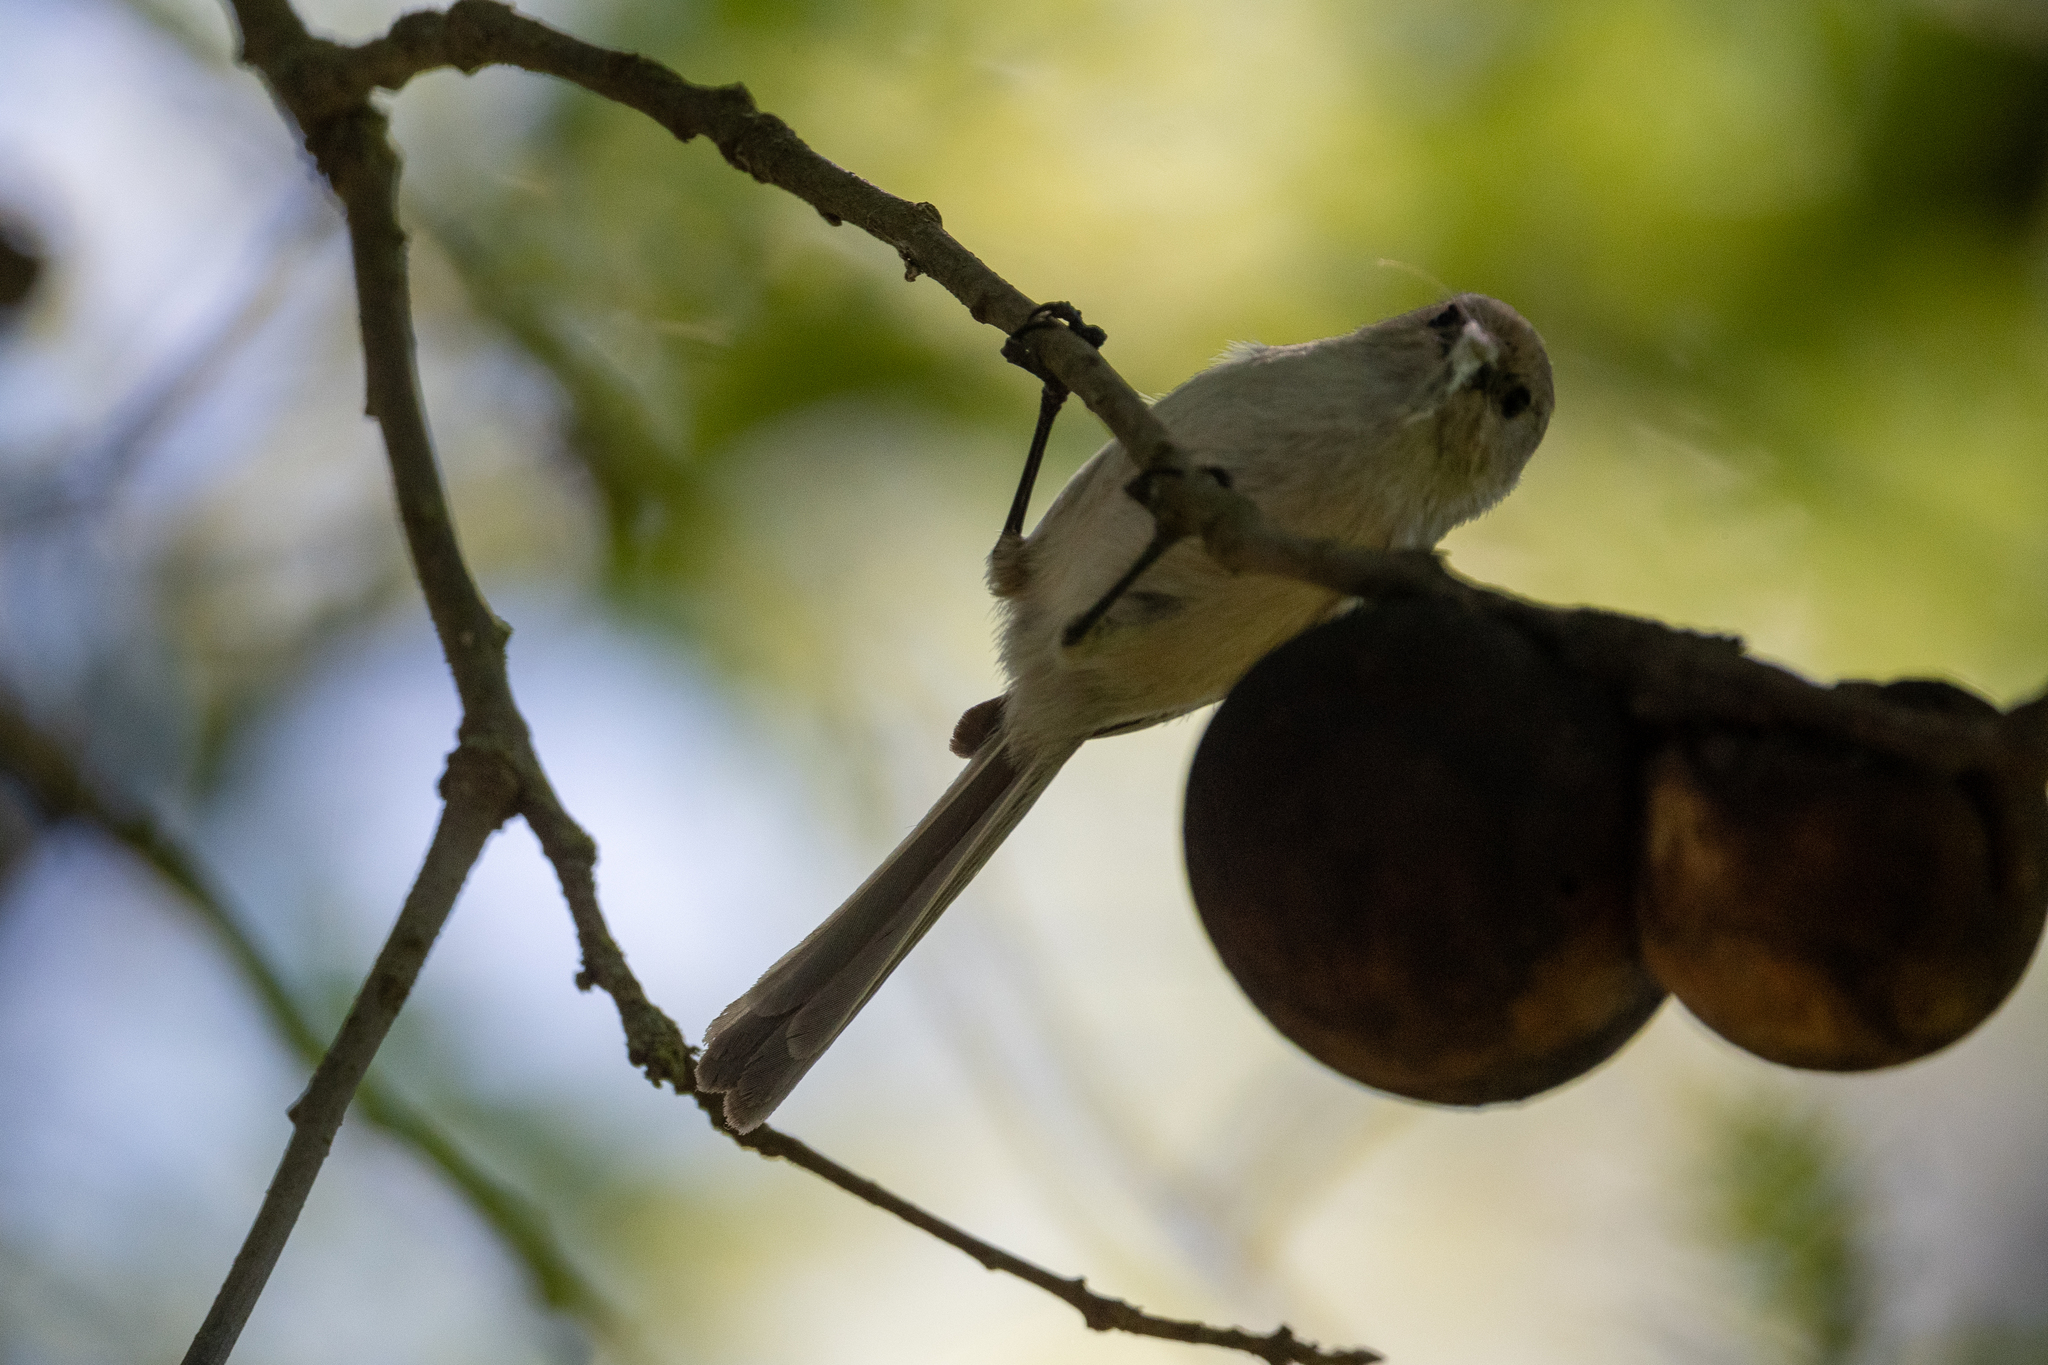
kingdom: Animalia
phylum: Chordata
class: Aves
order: Passeriformes
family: Aegithalidae
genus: Psaltriparus
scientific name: Psaltriparus minimus
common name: American bushtit
